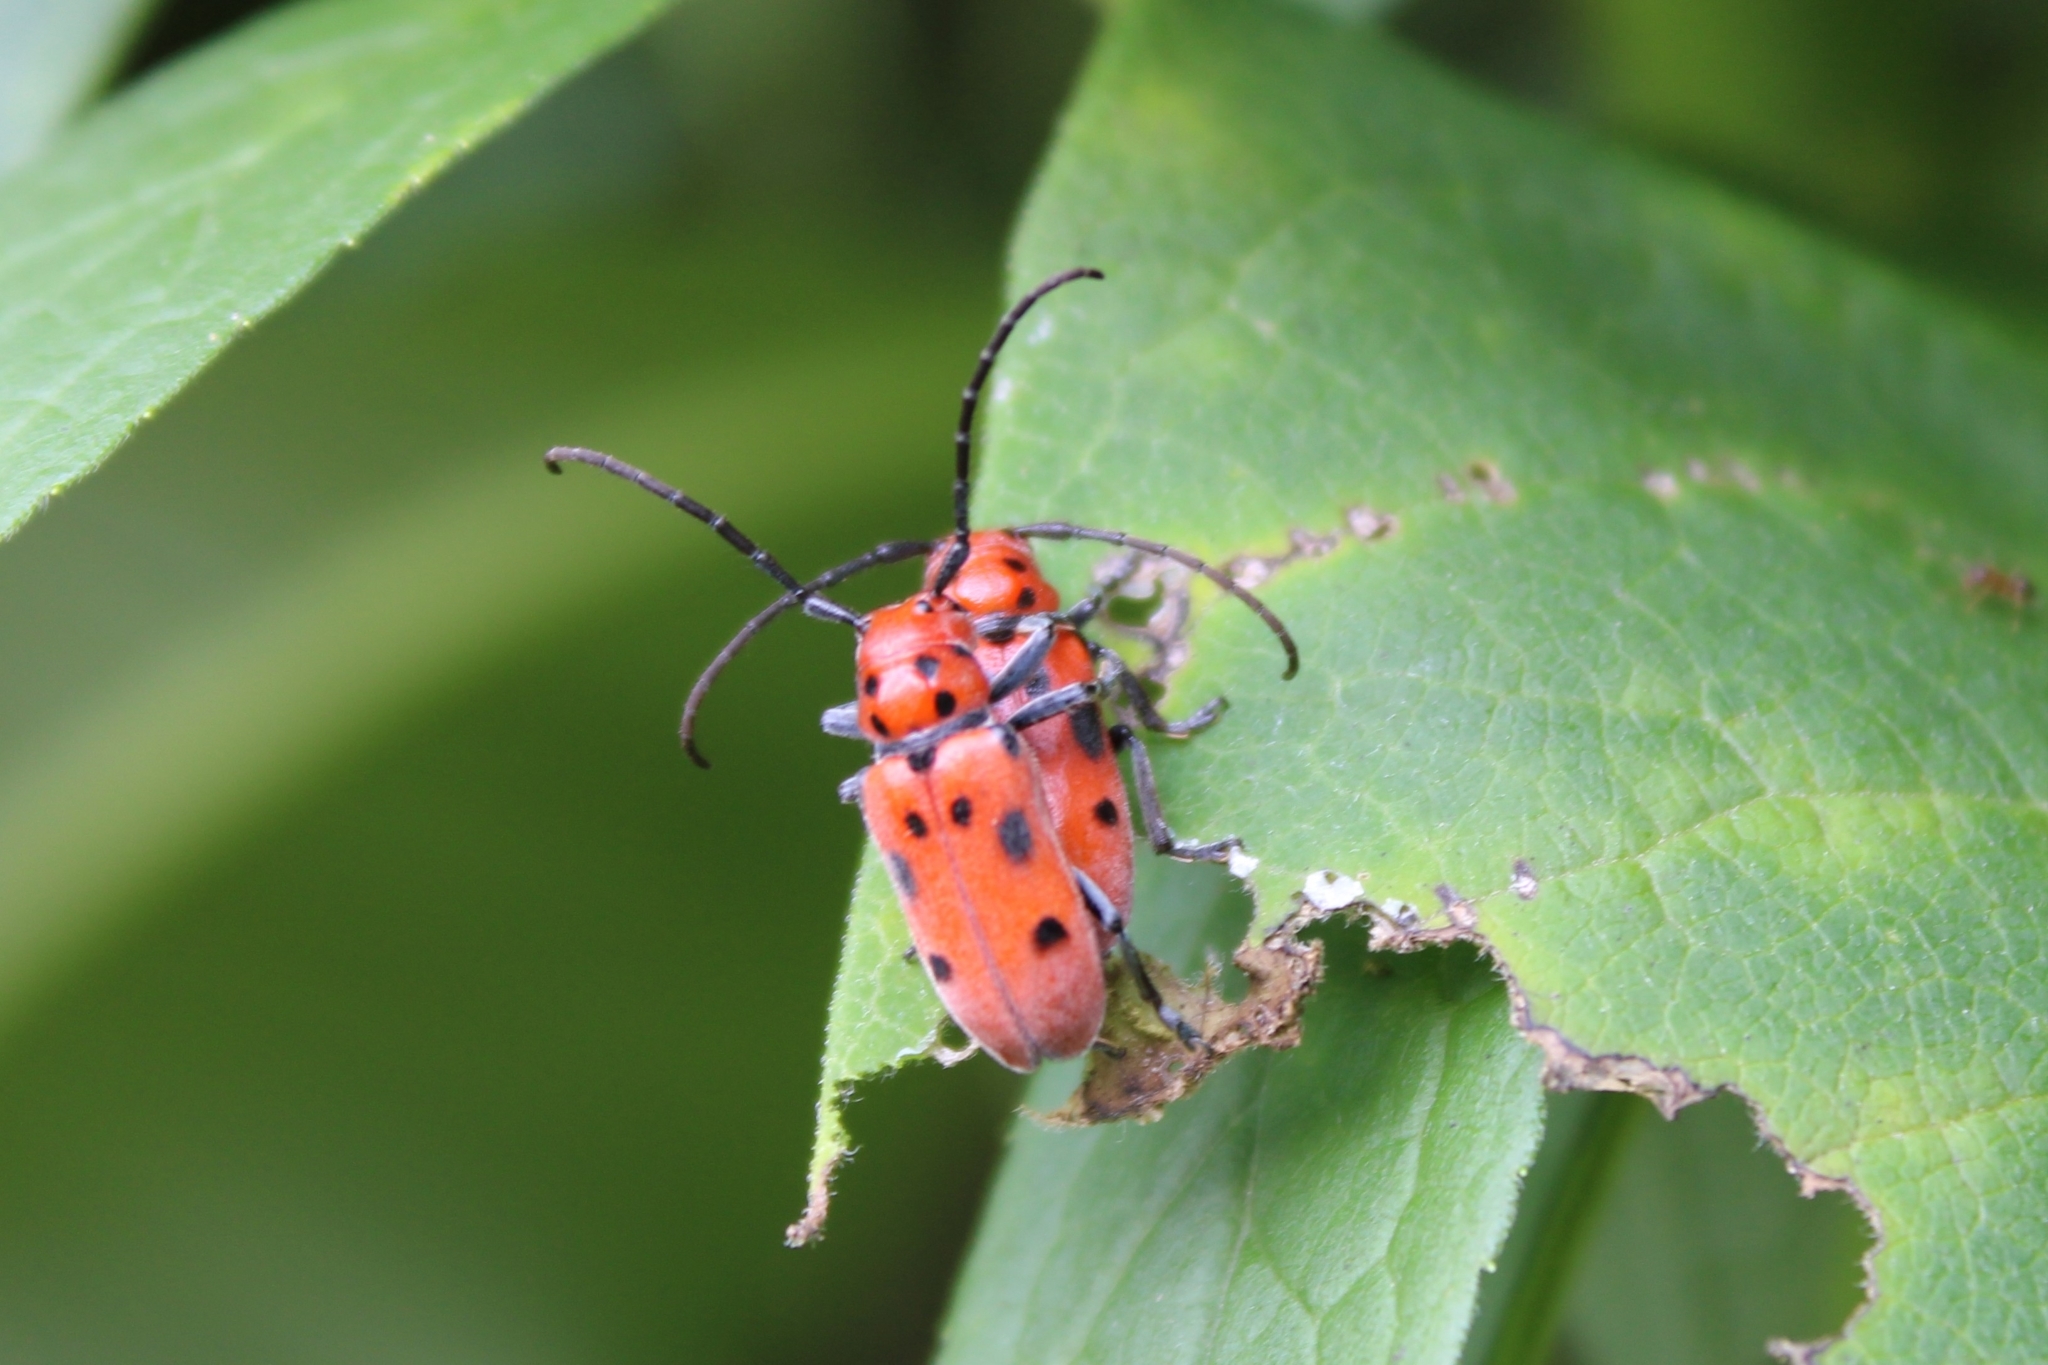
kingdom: Animalia
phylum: Arthropoda
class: Insecta
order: Coleoptera
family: Cerambycidae
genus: Tetraopes
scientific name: Tetraopes tetrophthalmus
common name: Red milkweed beetle
